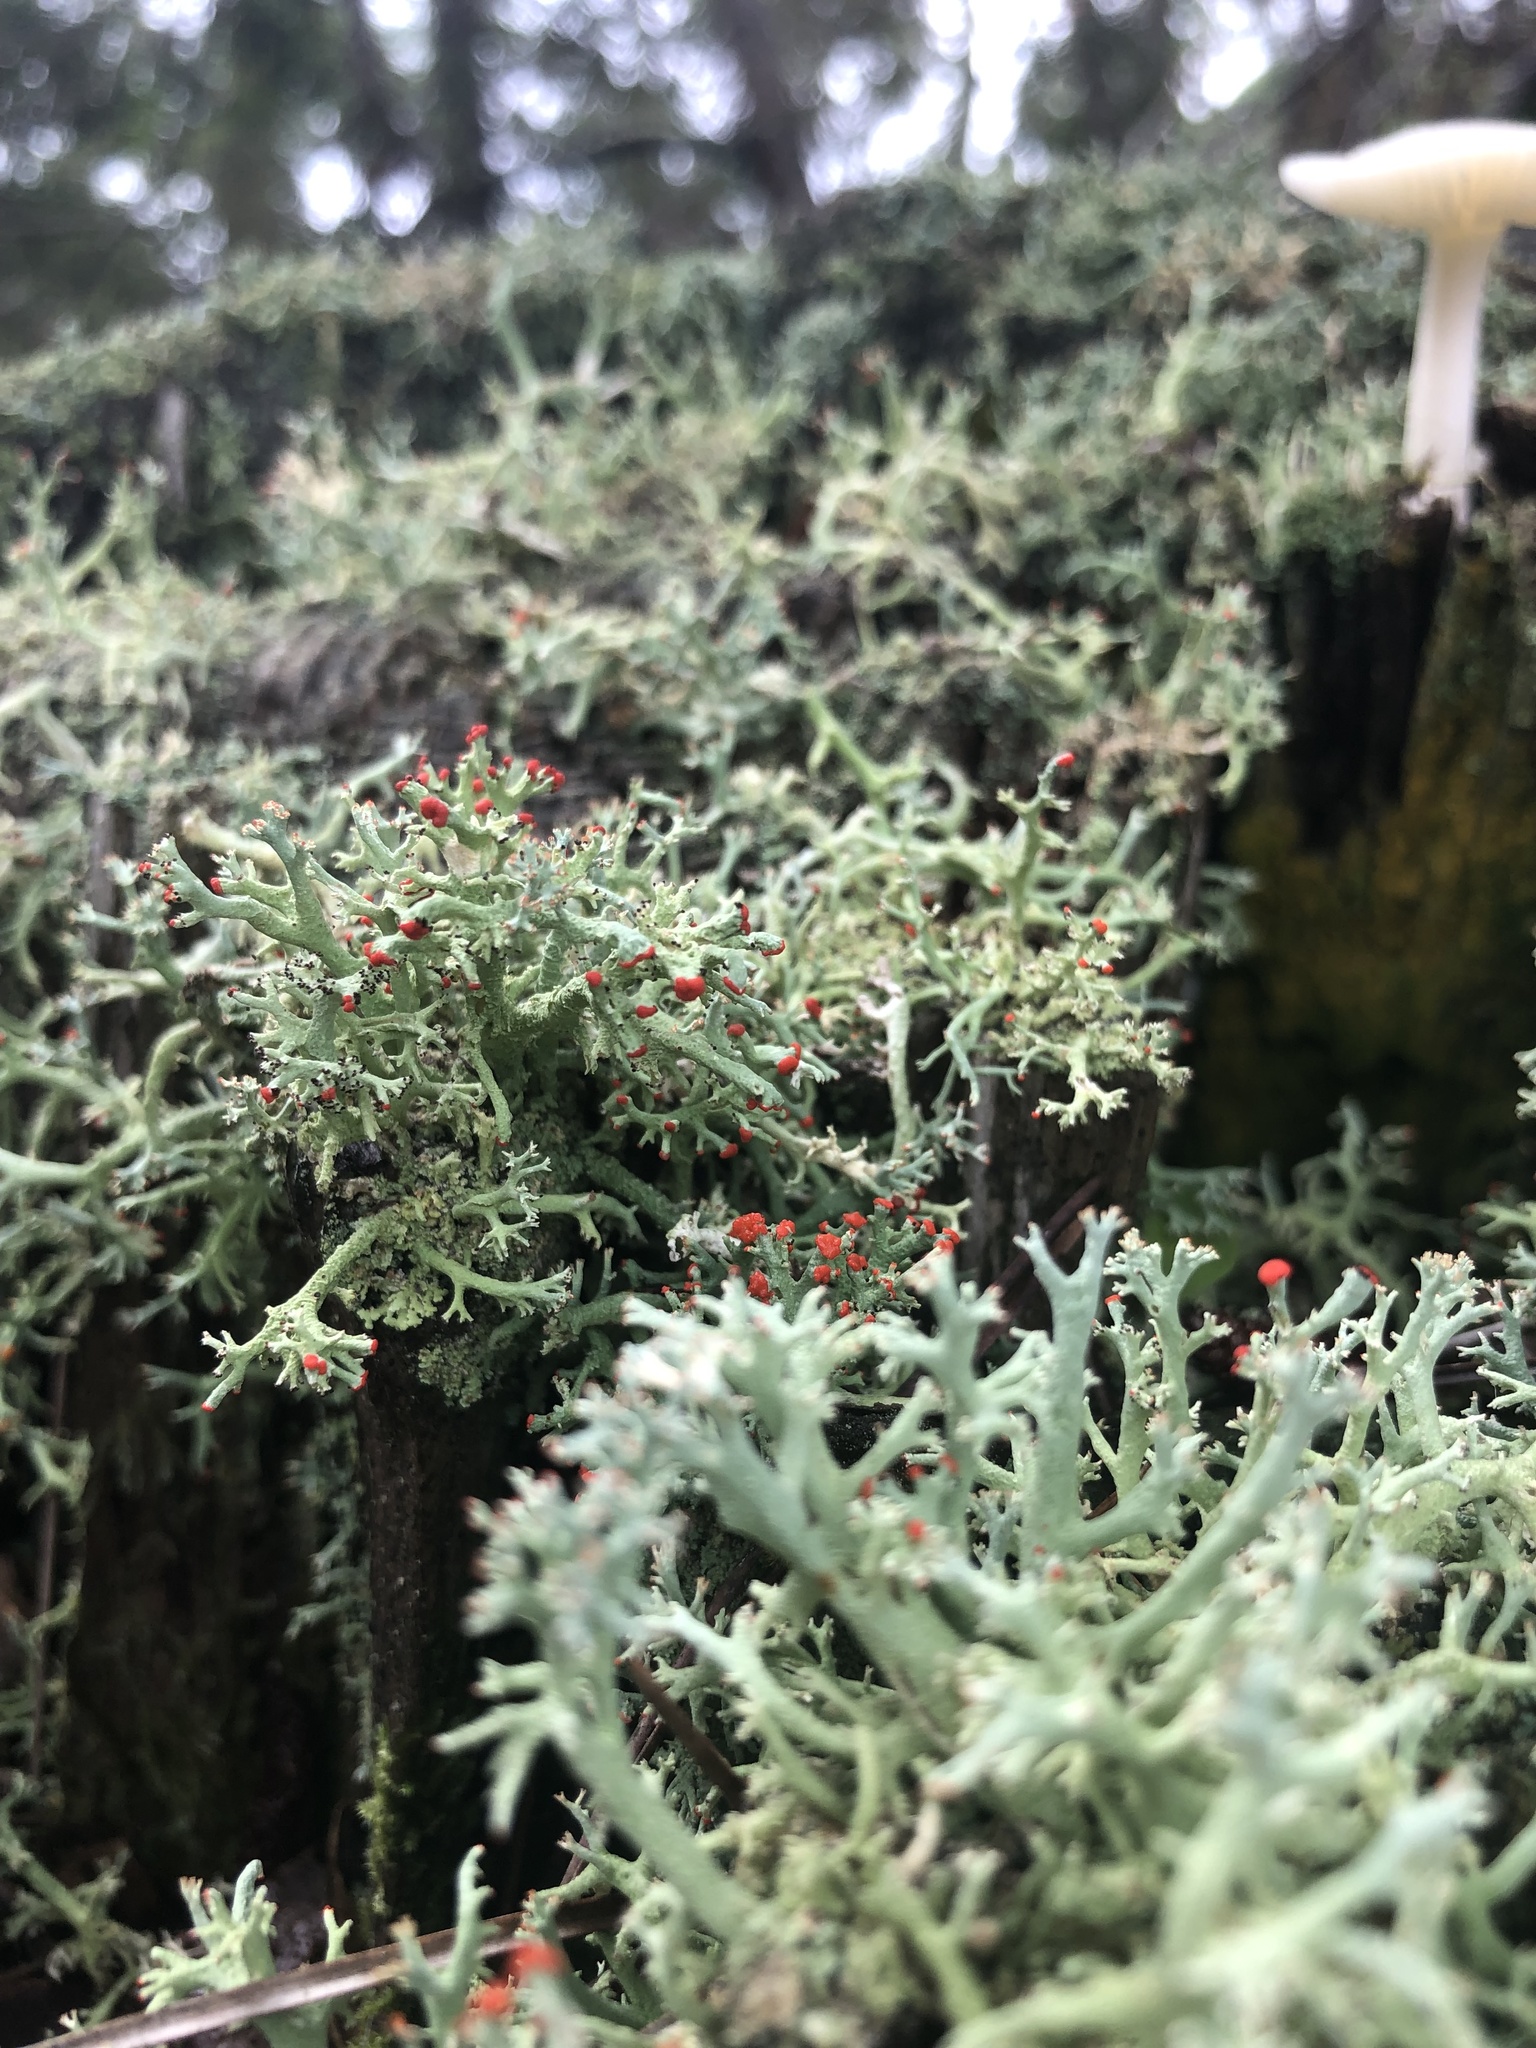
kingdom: Fungi
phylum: Ascomycota
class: Lecanoromycetes
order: Lecanorales
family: Cladoniaceae
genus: Cladonia
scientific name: Cladonia leporina
